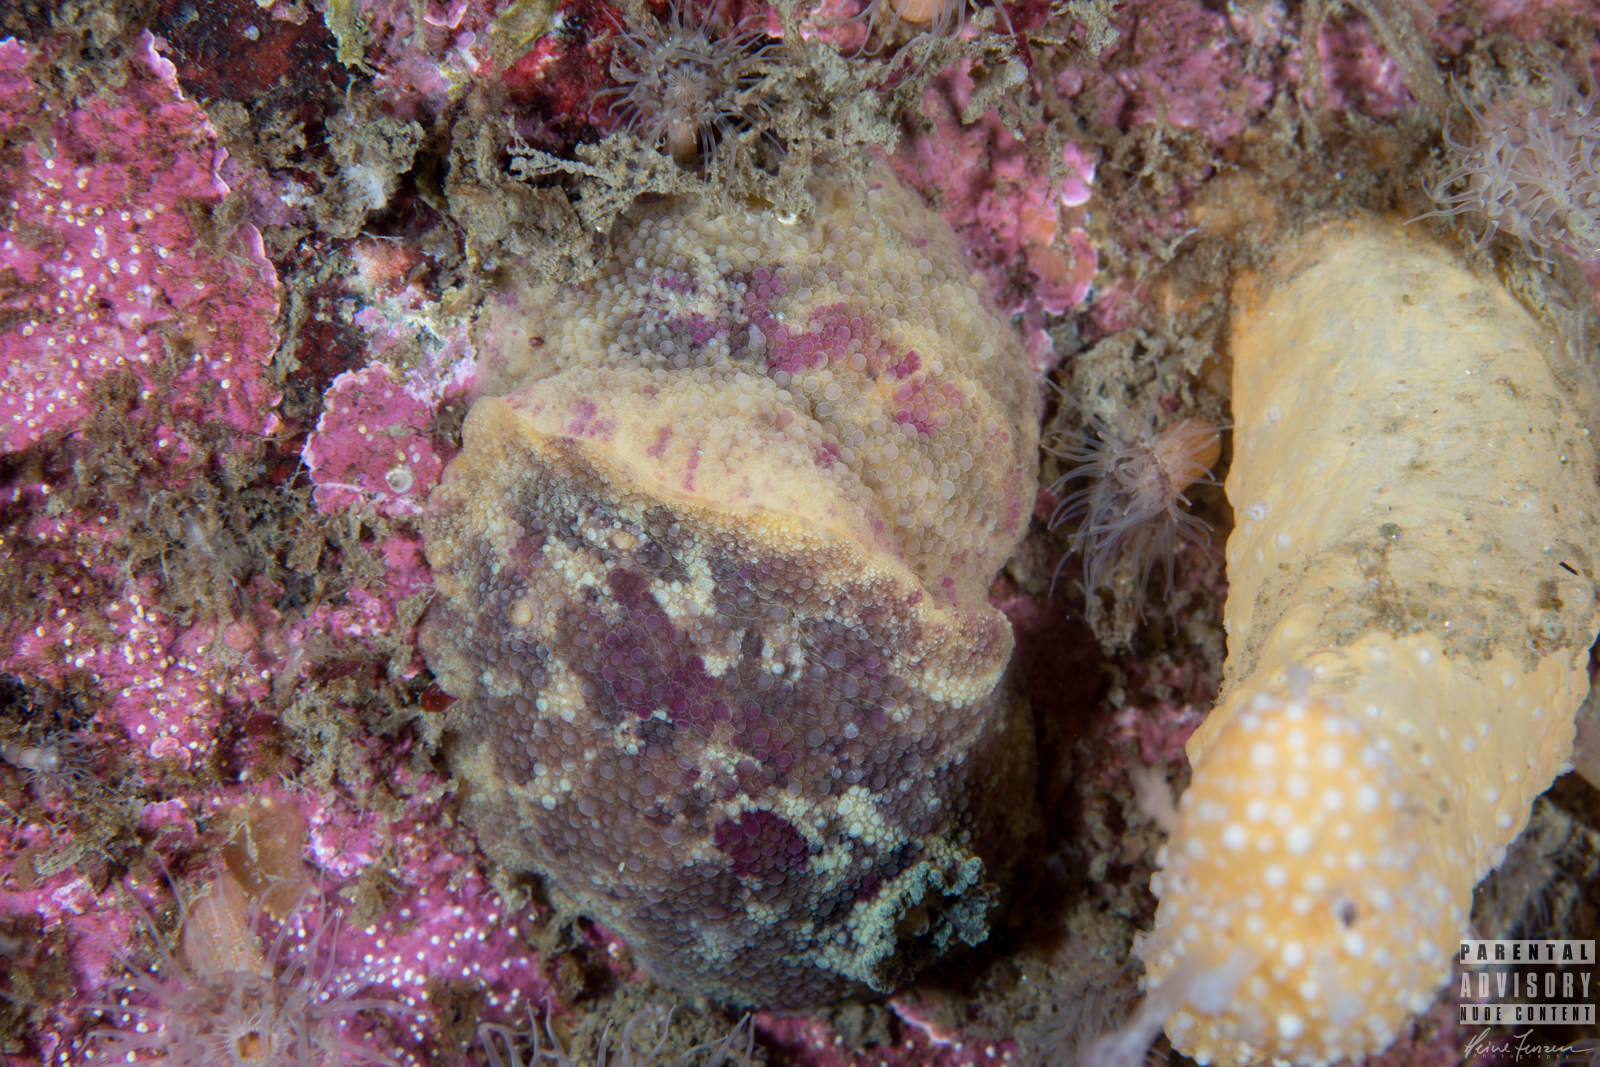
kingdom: Animalia
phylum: Mollusca
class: Gastropoda
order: Nudibranchia
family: Dorididae
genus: Doris
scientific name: Doris pseudoargus
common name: Sea lemon
